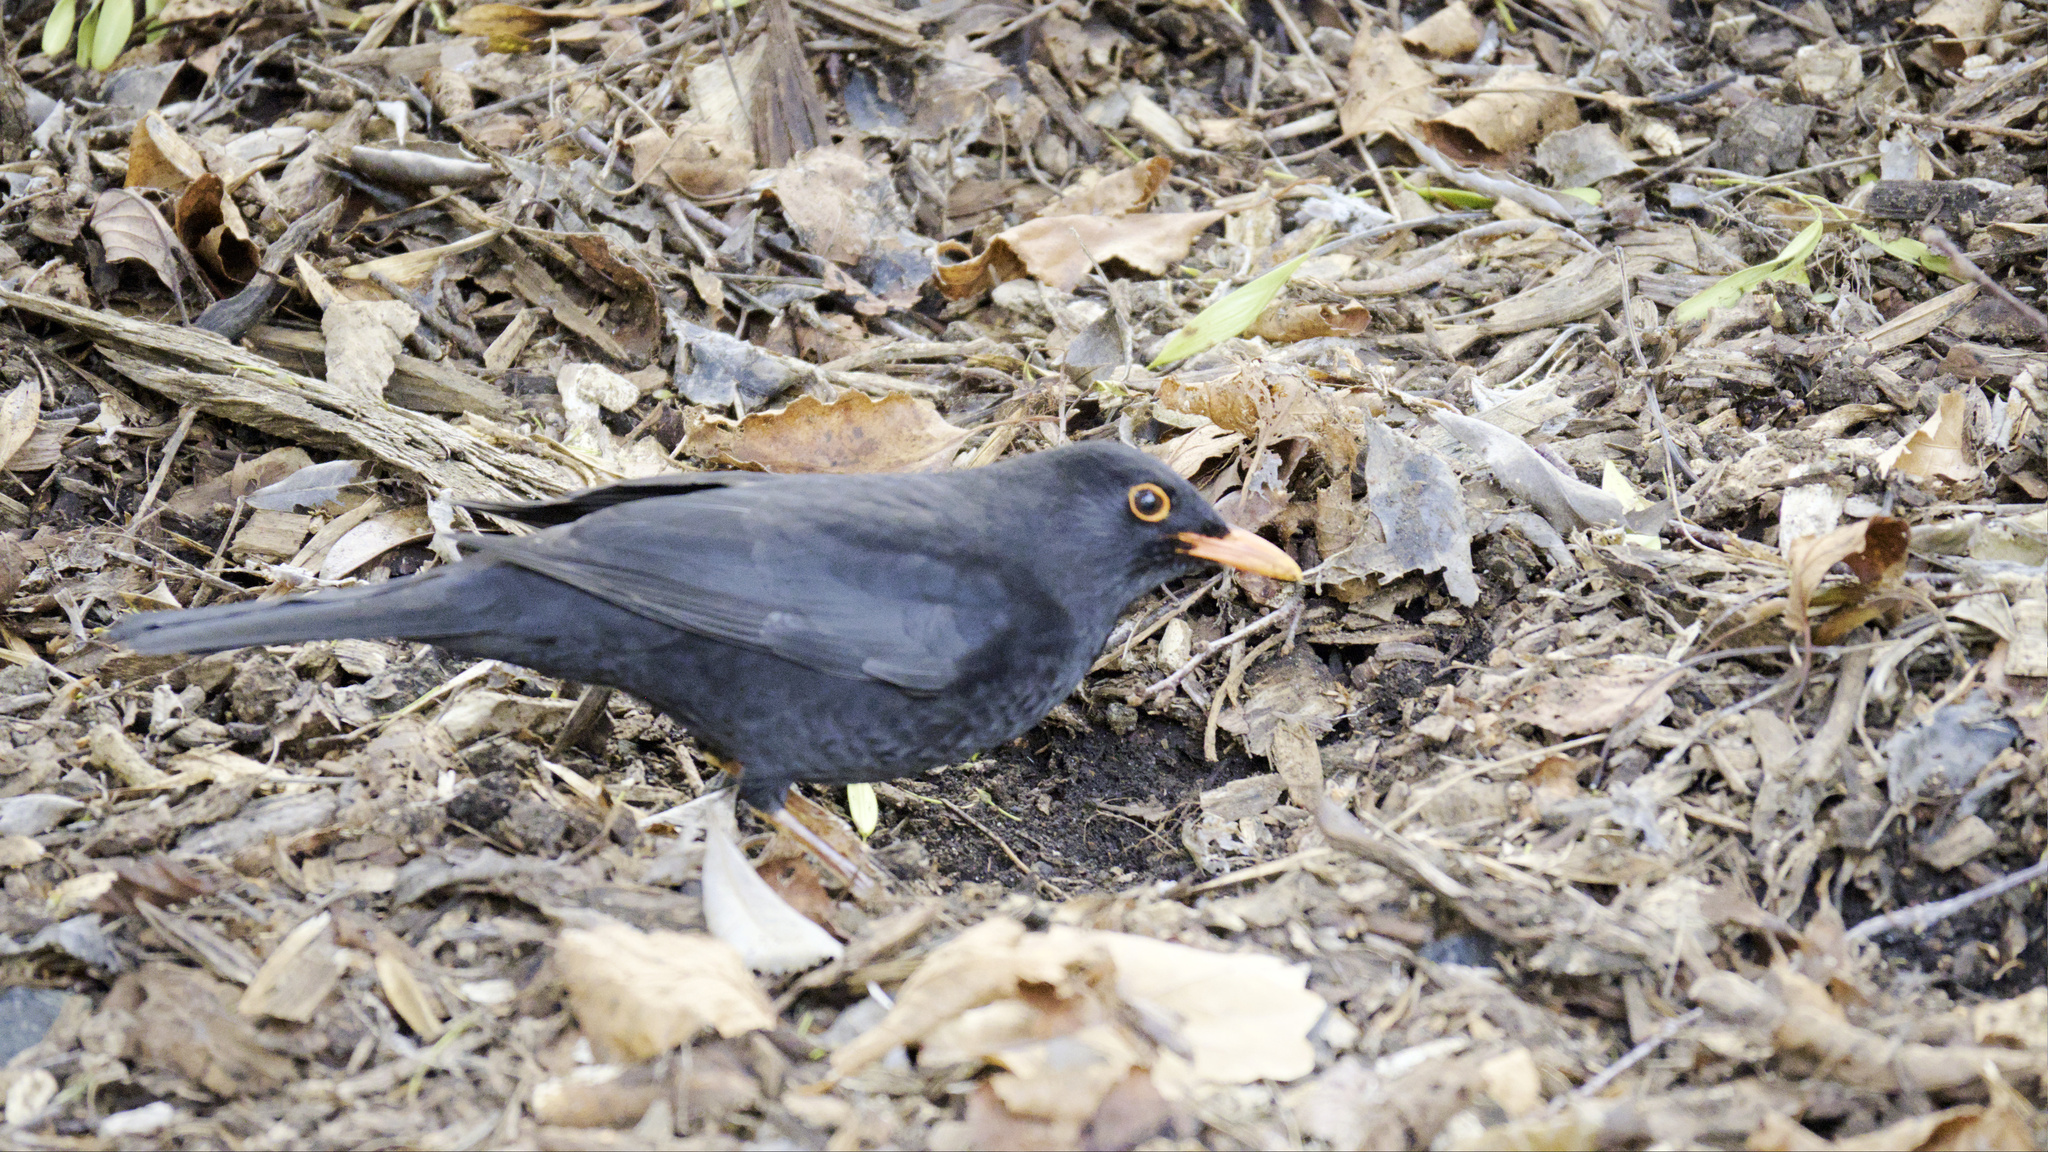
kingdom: Animalia
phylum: Chordata
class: Aves
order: Passeriformes
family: Turdidae
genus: Turdus
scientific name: Turdus merula
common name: Common blackbird
